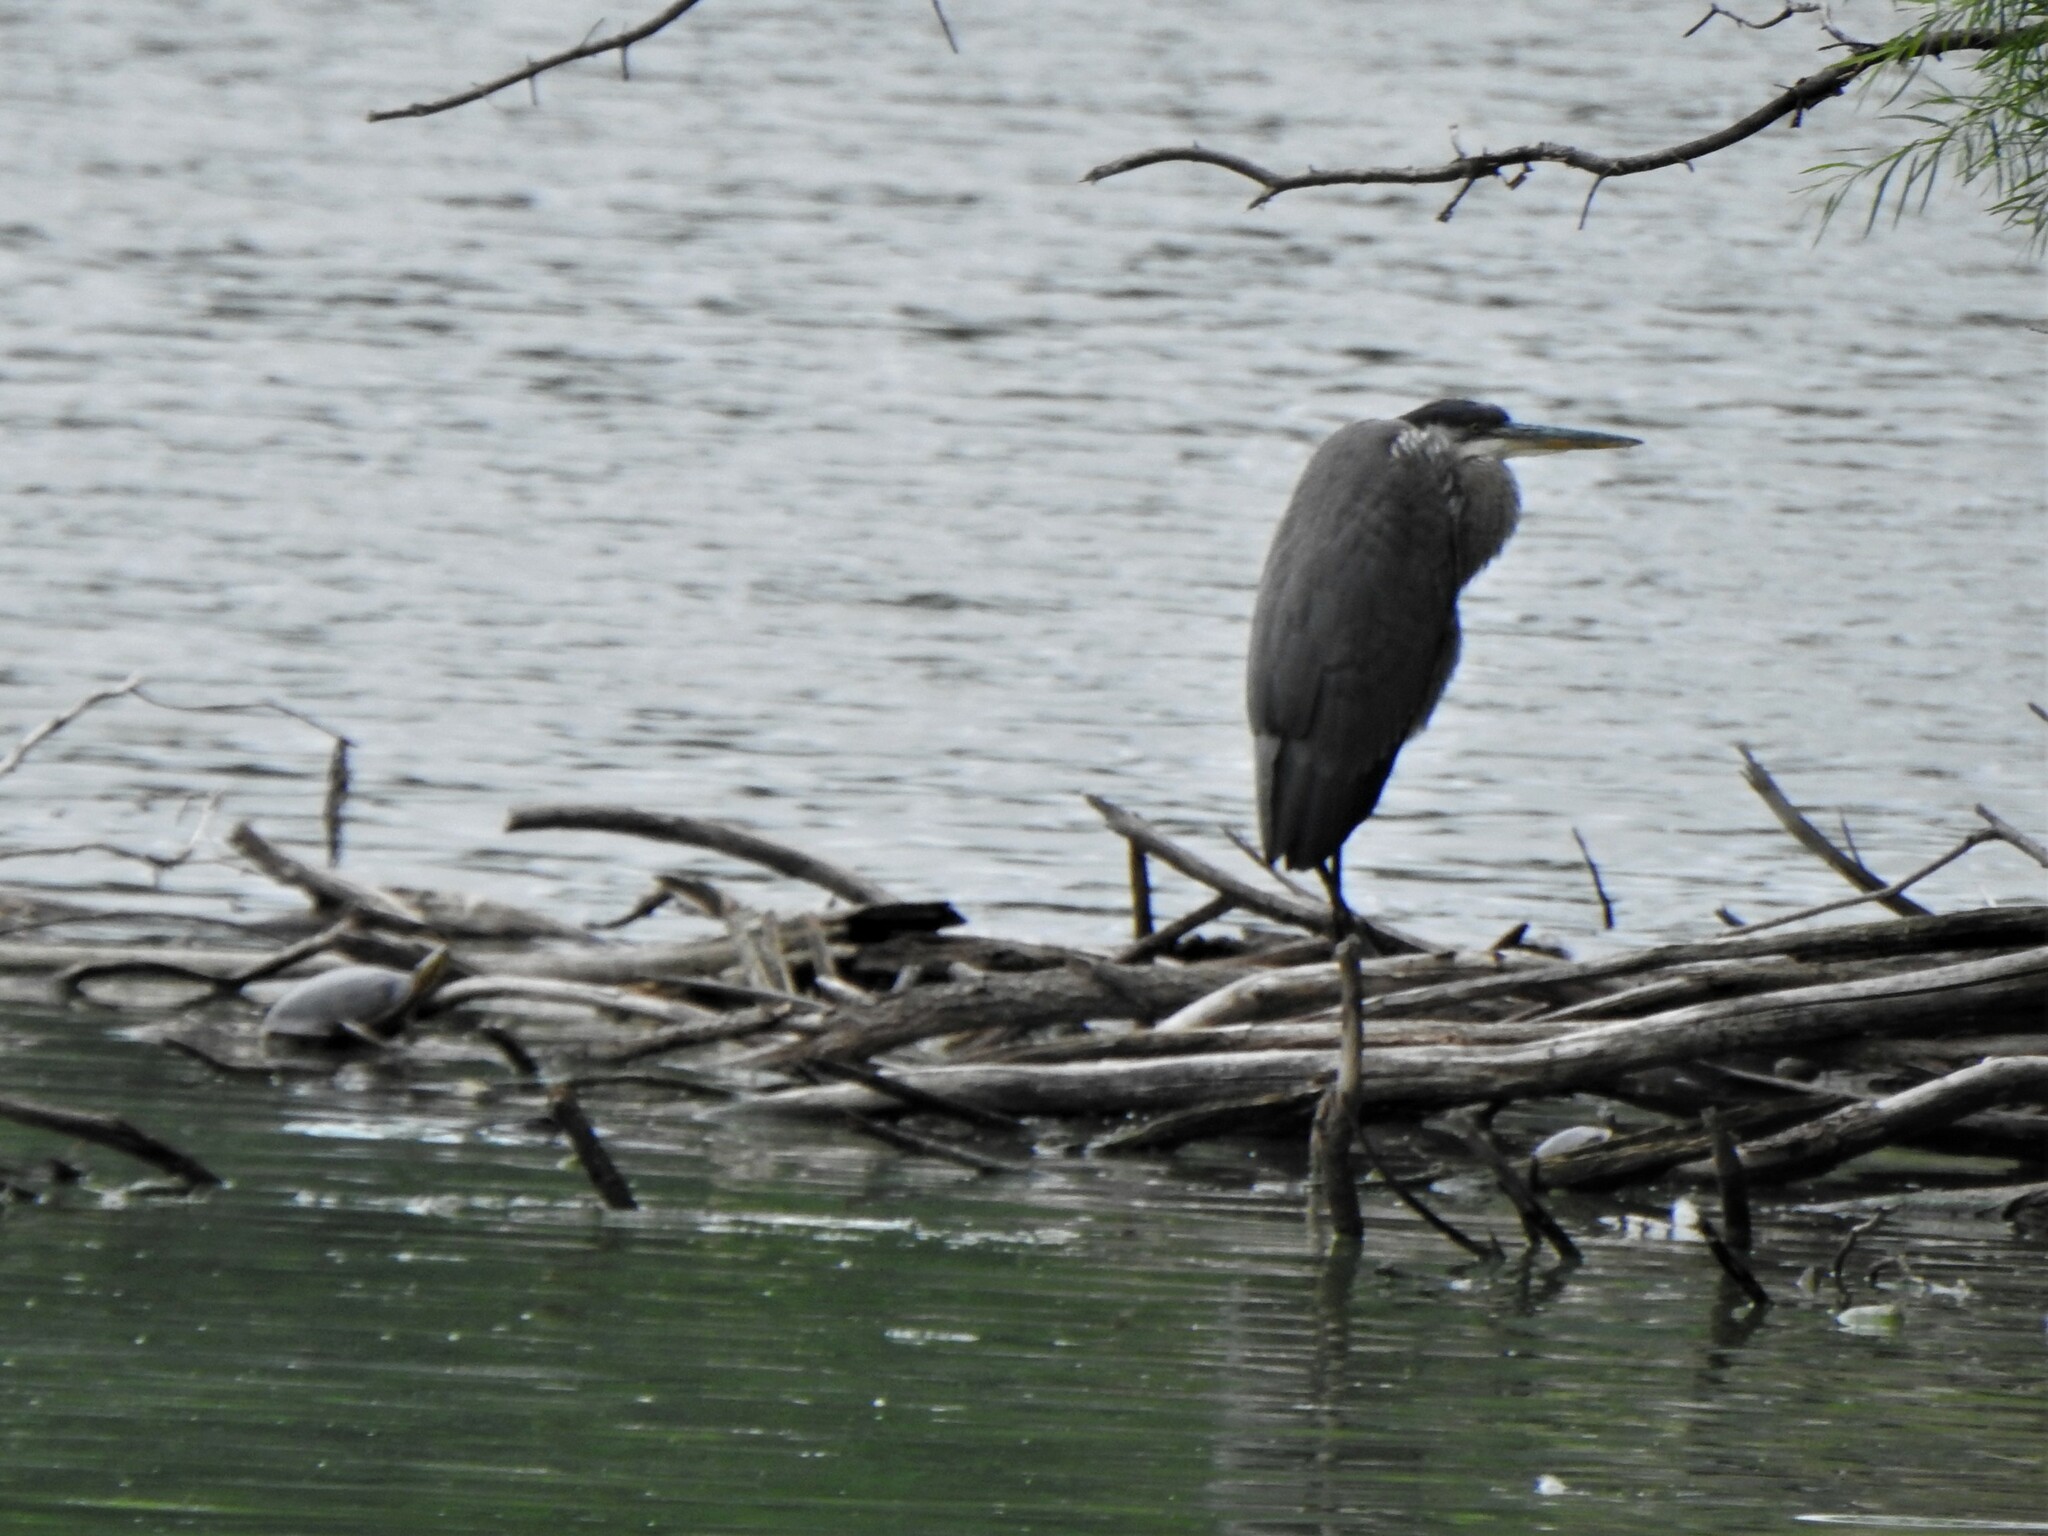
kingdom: Animalia
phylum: Chordata
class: Aves
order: Pelecaniformes
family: Ardeidae
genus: Ardea
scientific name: Ardea herodias
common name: Great blue heron
